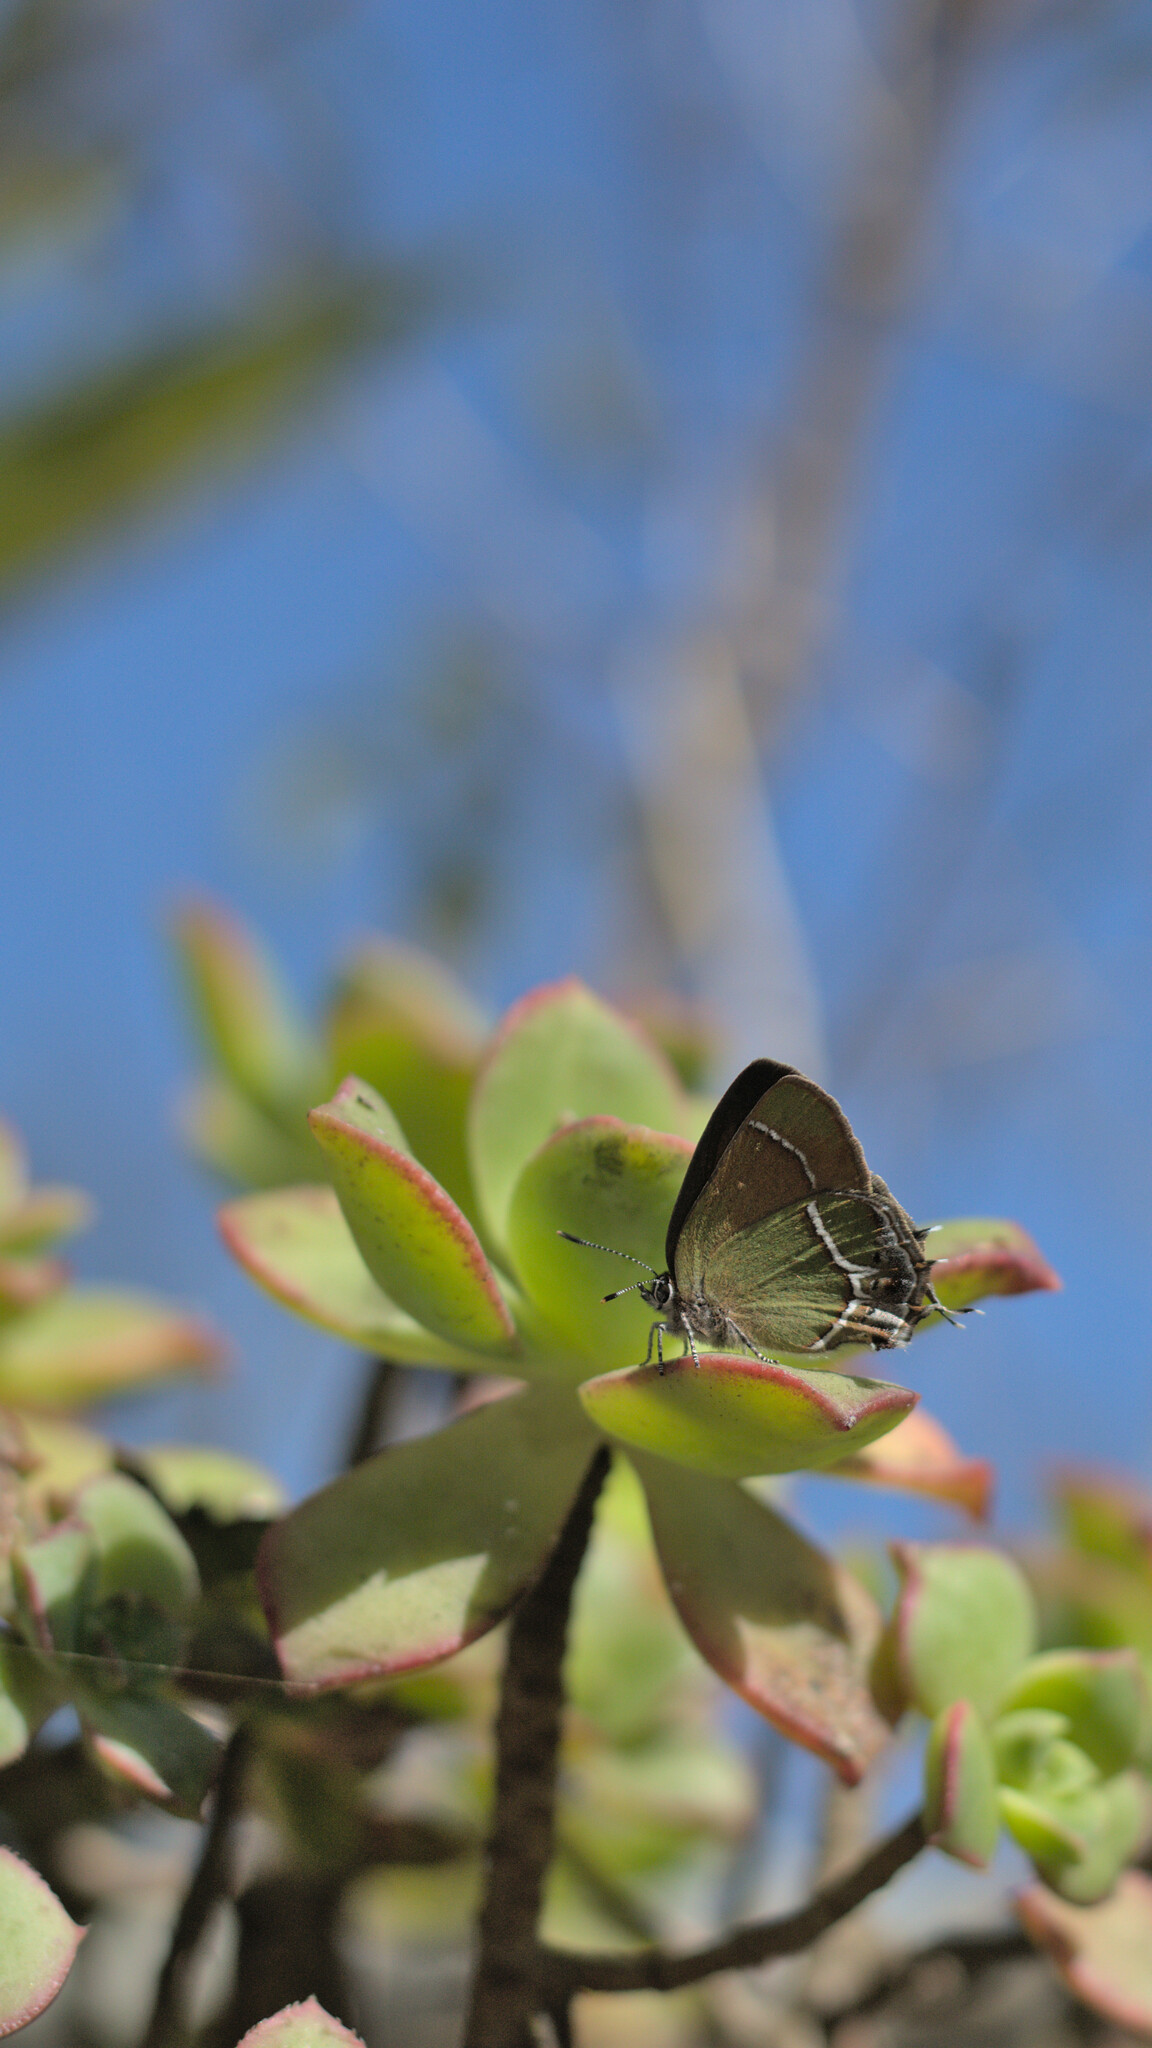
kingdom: Animalia
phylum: Arthropoda
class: Insecta
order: Lepidoptera
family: Lycaenidae
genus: Xamia
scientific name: Xamia xami
